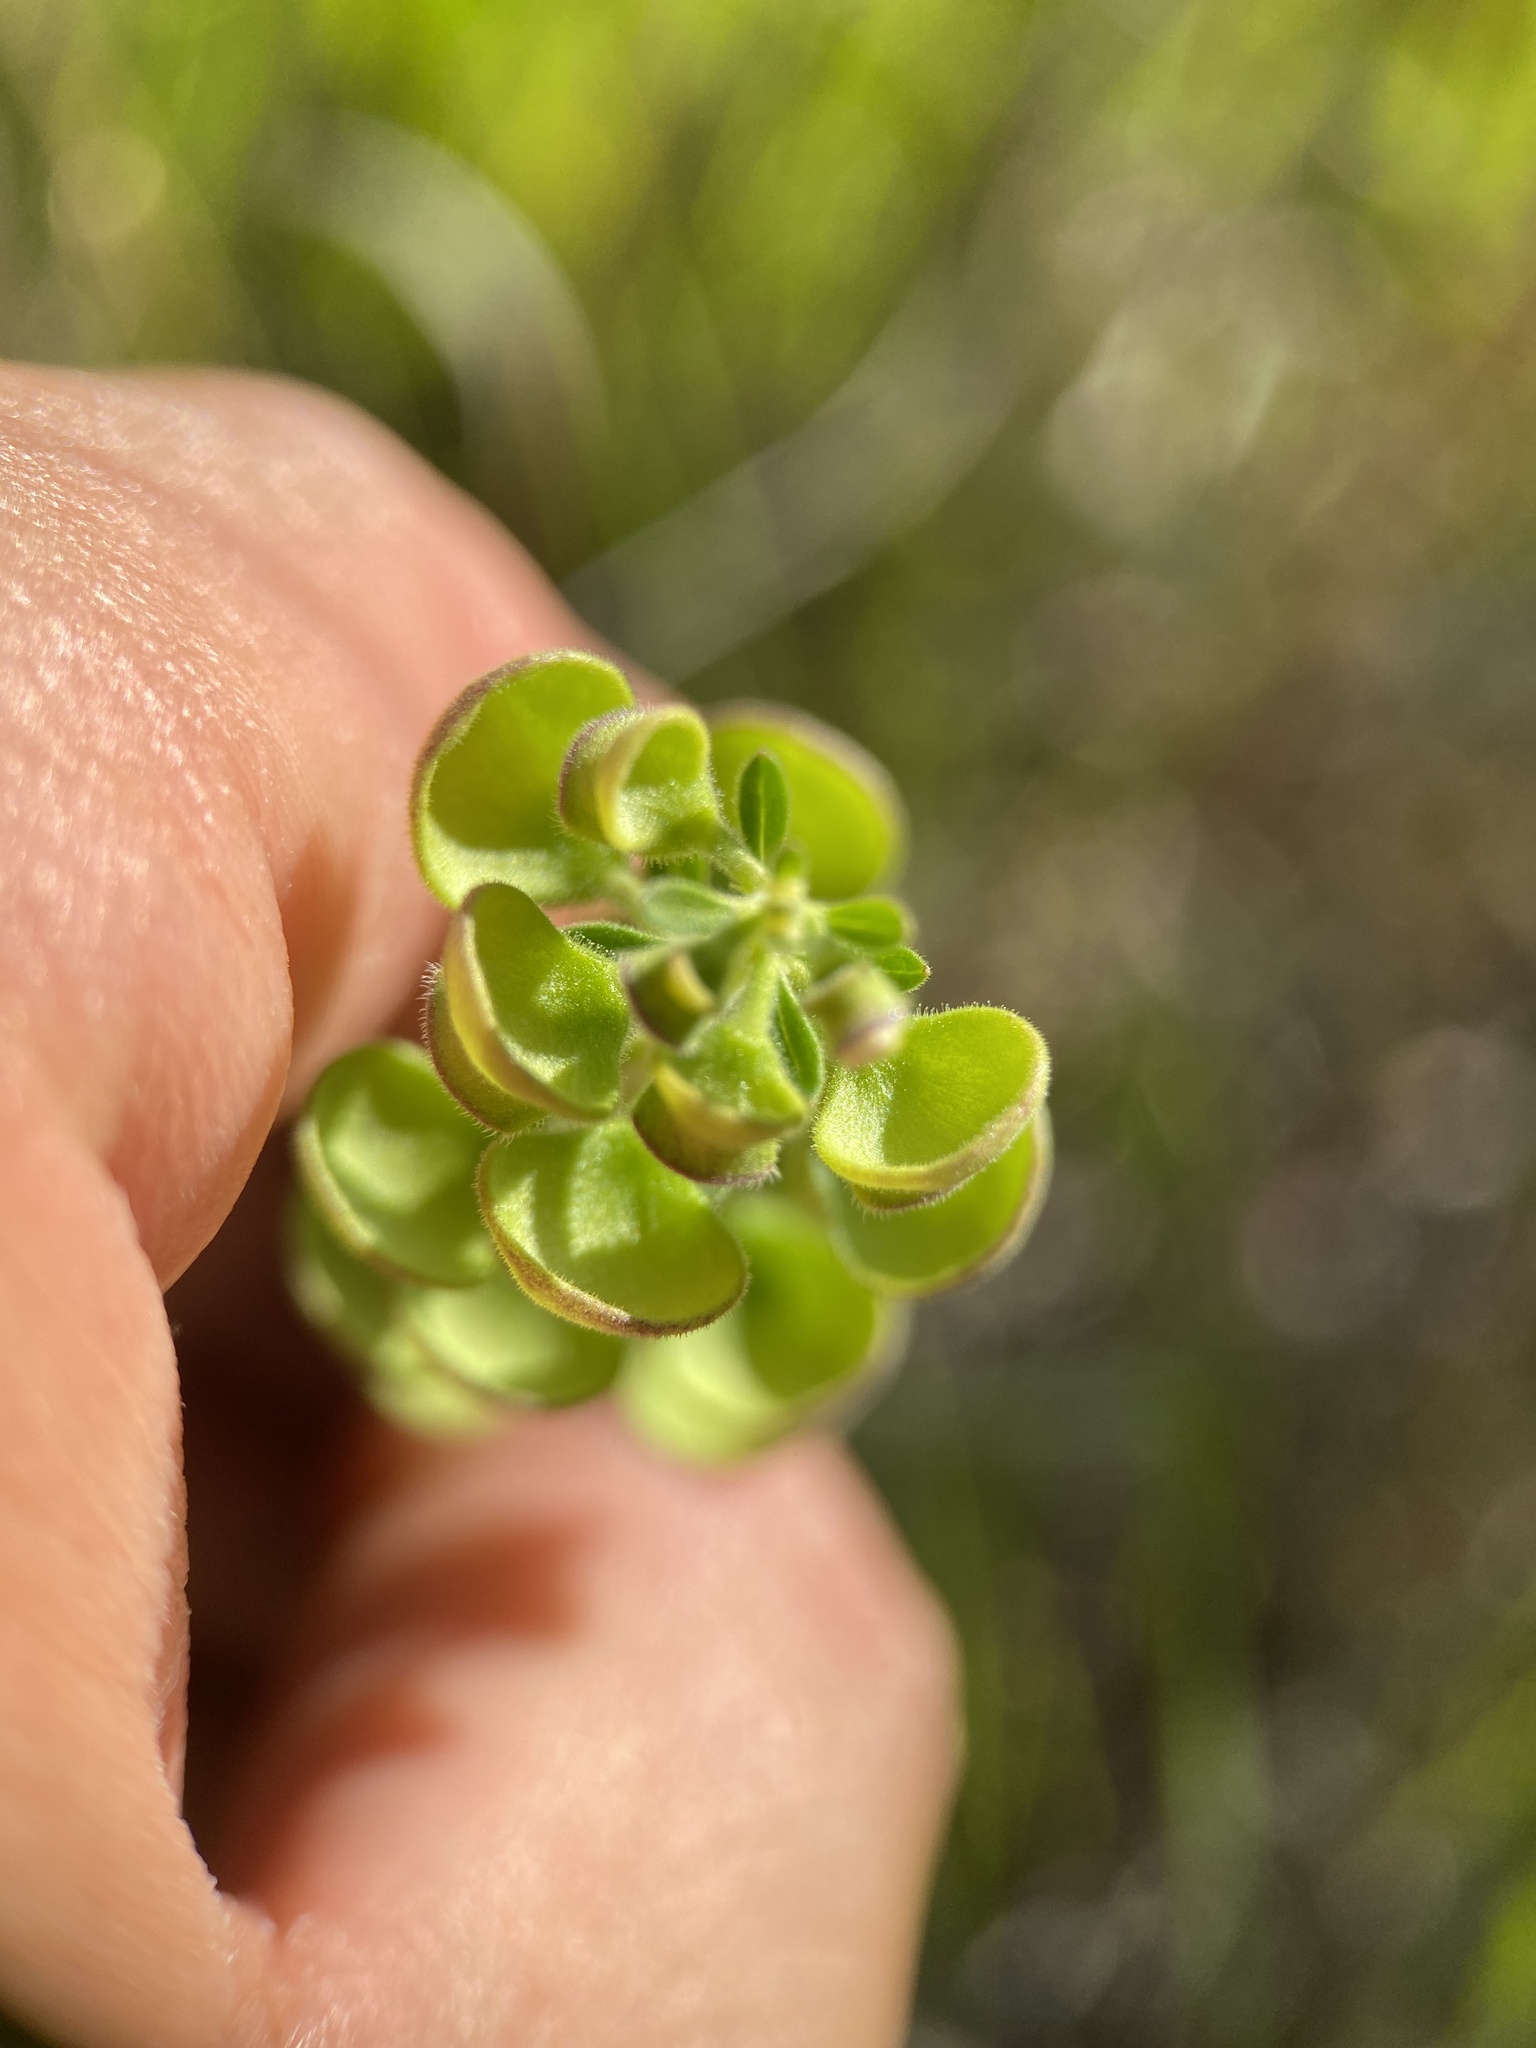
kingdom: Plantae
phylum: Tracheophyta
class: Magnoliopsida
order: Lamiales
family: Lamiaceae
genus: Scutellaria
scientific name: Scutellaria integrifolia
